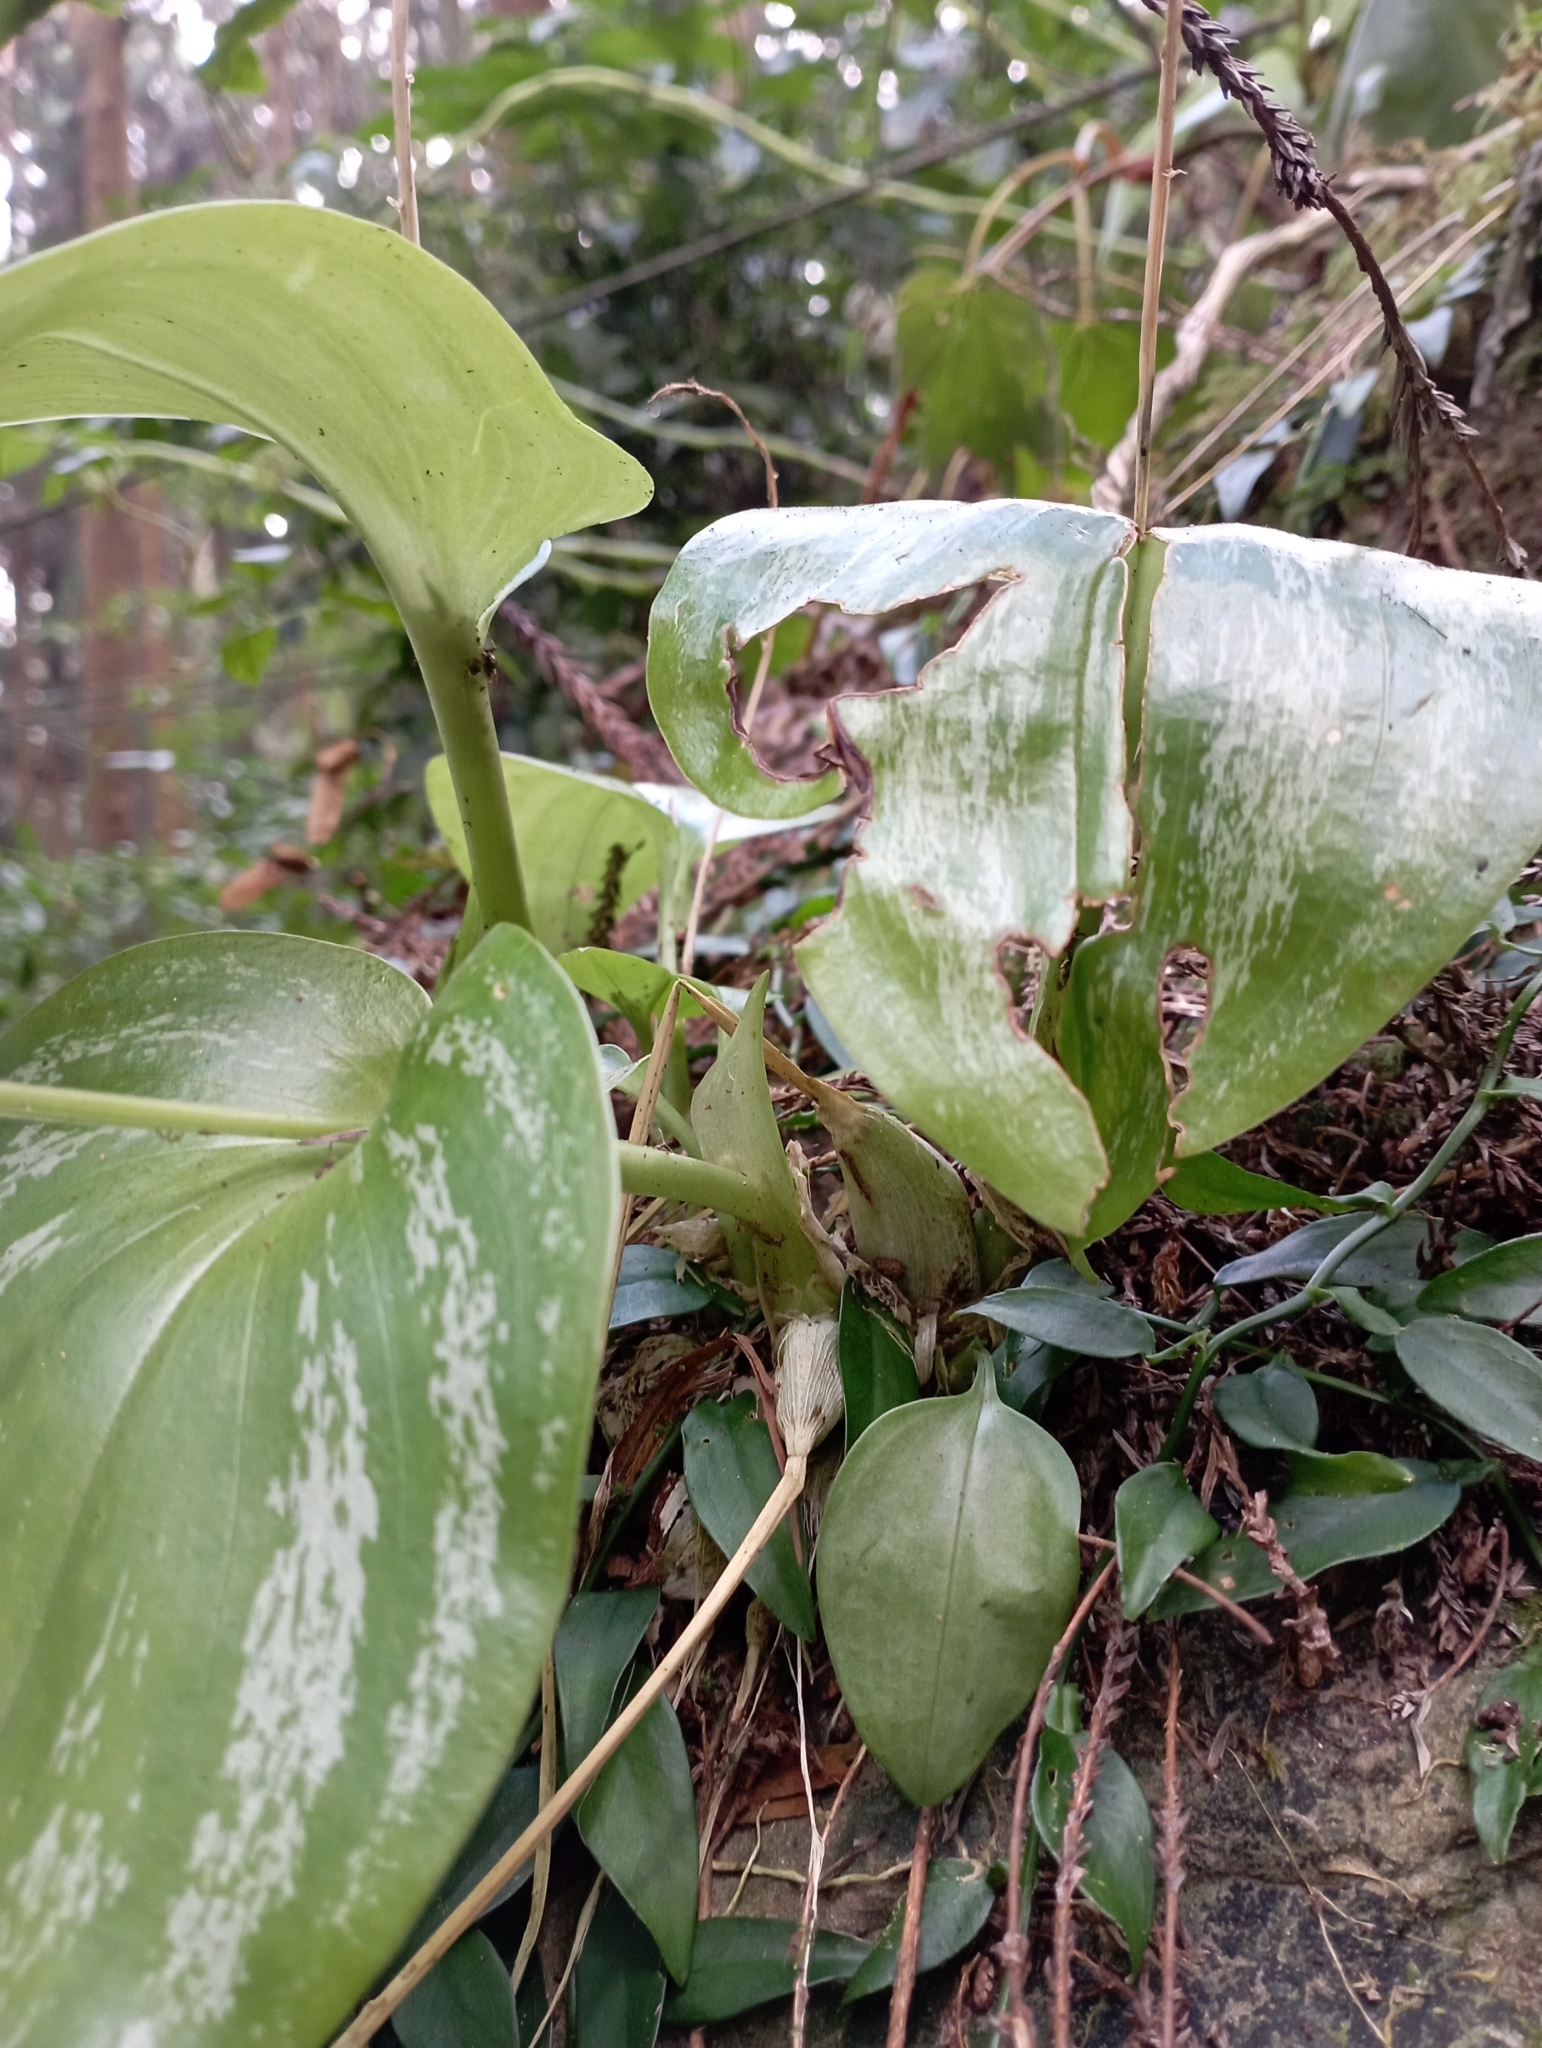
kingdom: Plantae
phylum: Tracheophyta
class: Liliopsida
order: Asparagales
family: Orchidaceae
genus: Liparis
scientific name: Liparis cordifolia
